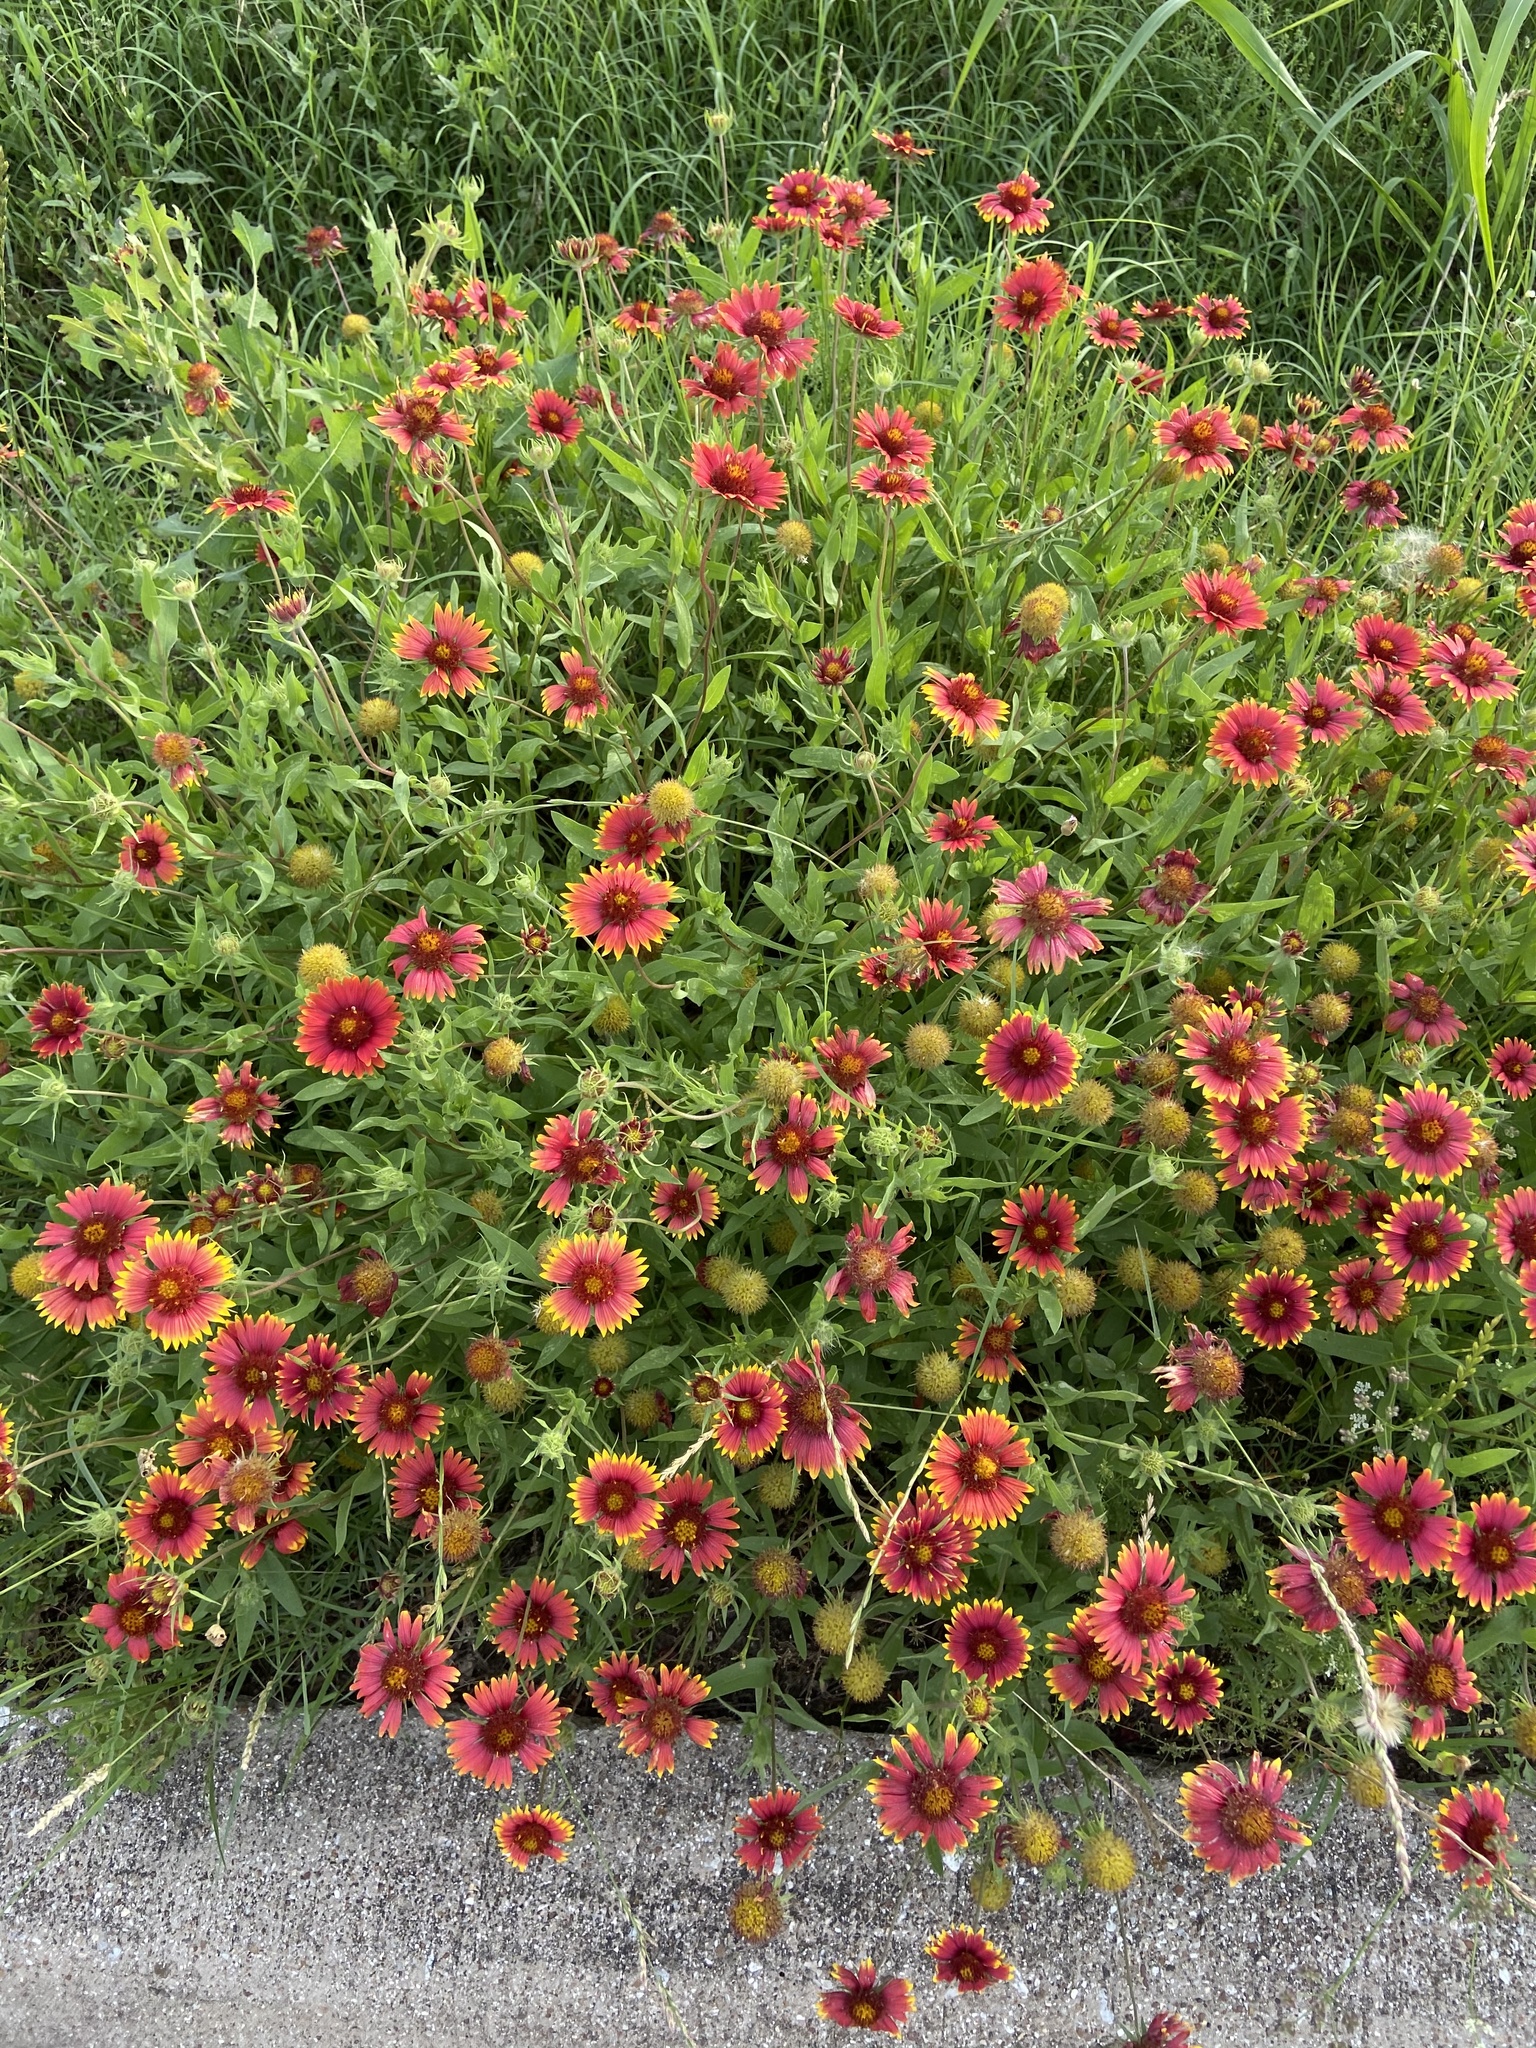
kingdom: Plantae
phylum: Tracheophyta
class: Magnoliopsida
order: Asterales
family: Asteraceae
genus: Gaillardia
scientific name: Gaillardia pulchella
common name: Firewheel
